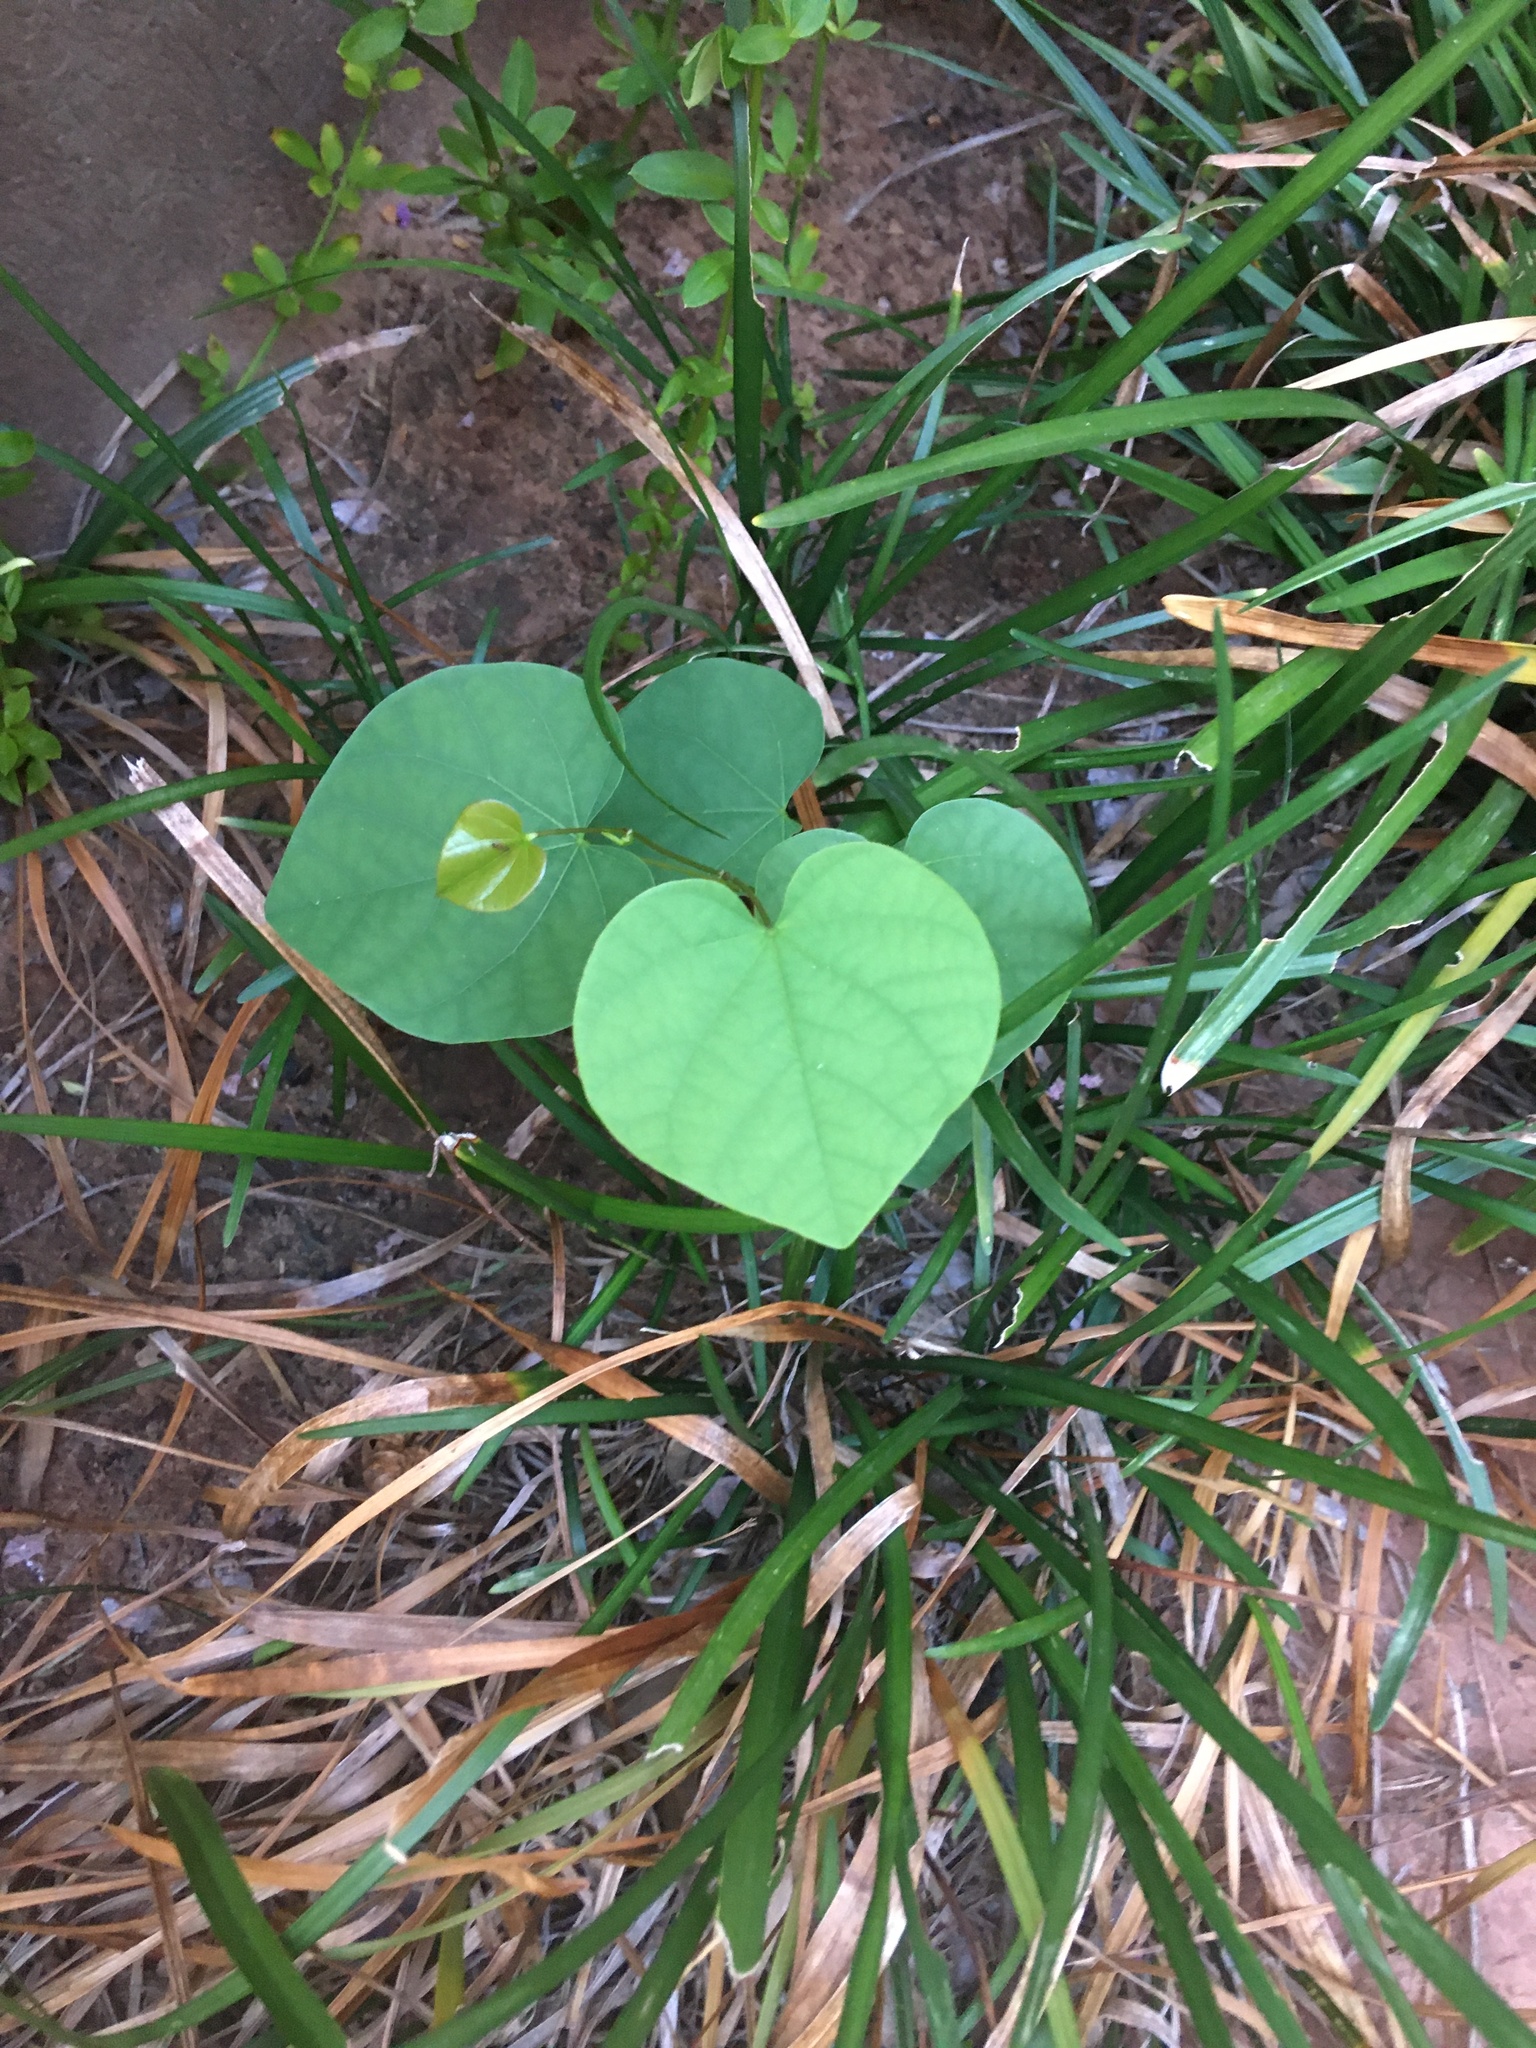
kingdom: Plantae
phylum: Tracheophyta
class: Magnoliopsida
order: Fabales
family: Fabaceae
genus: Cercis
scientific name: Cercis canadensis
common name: Eastern redbud
